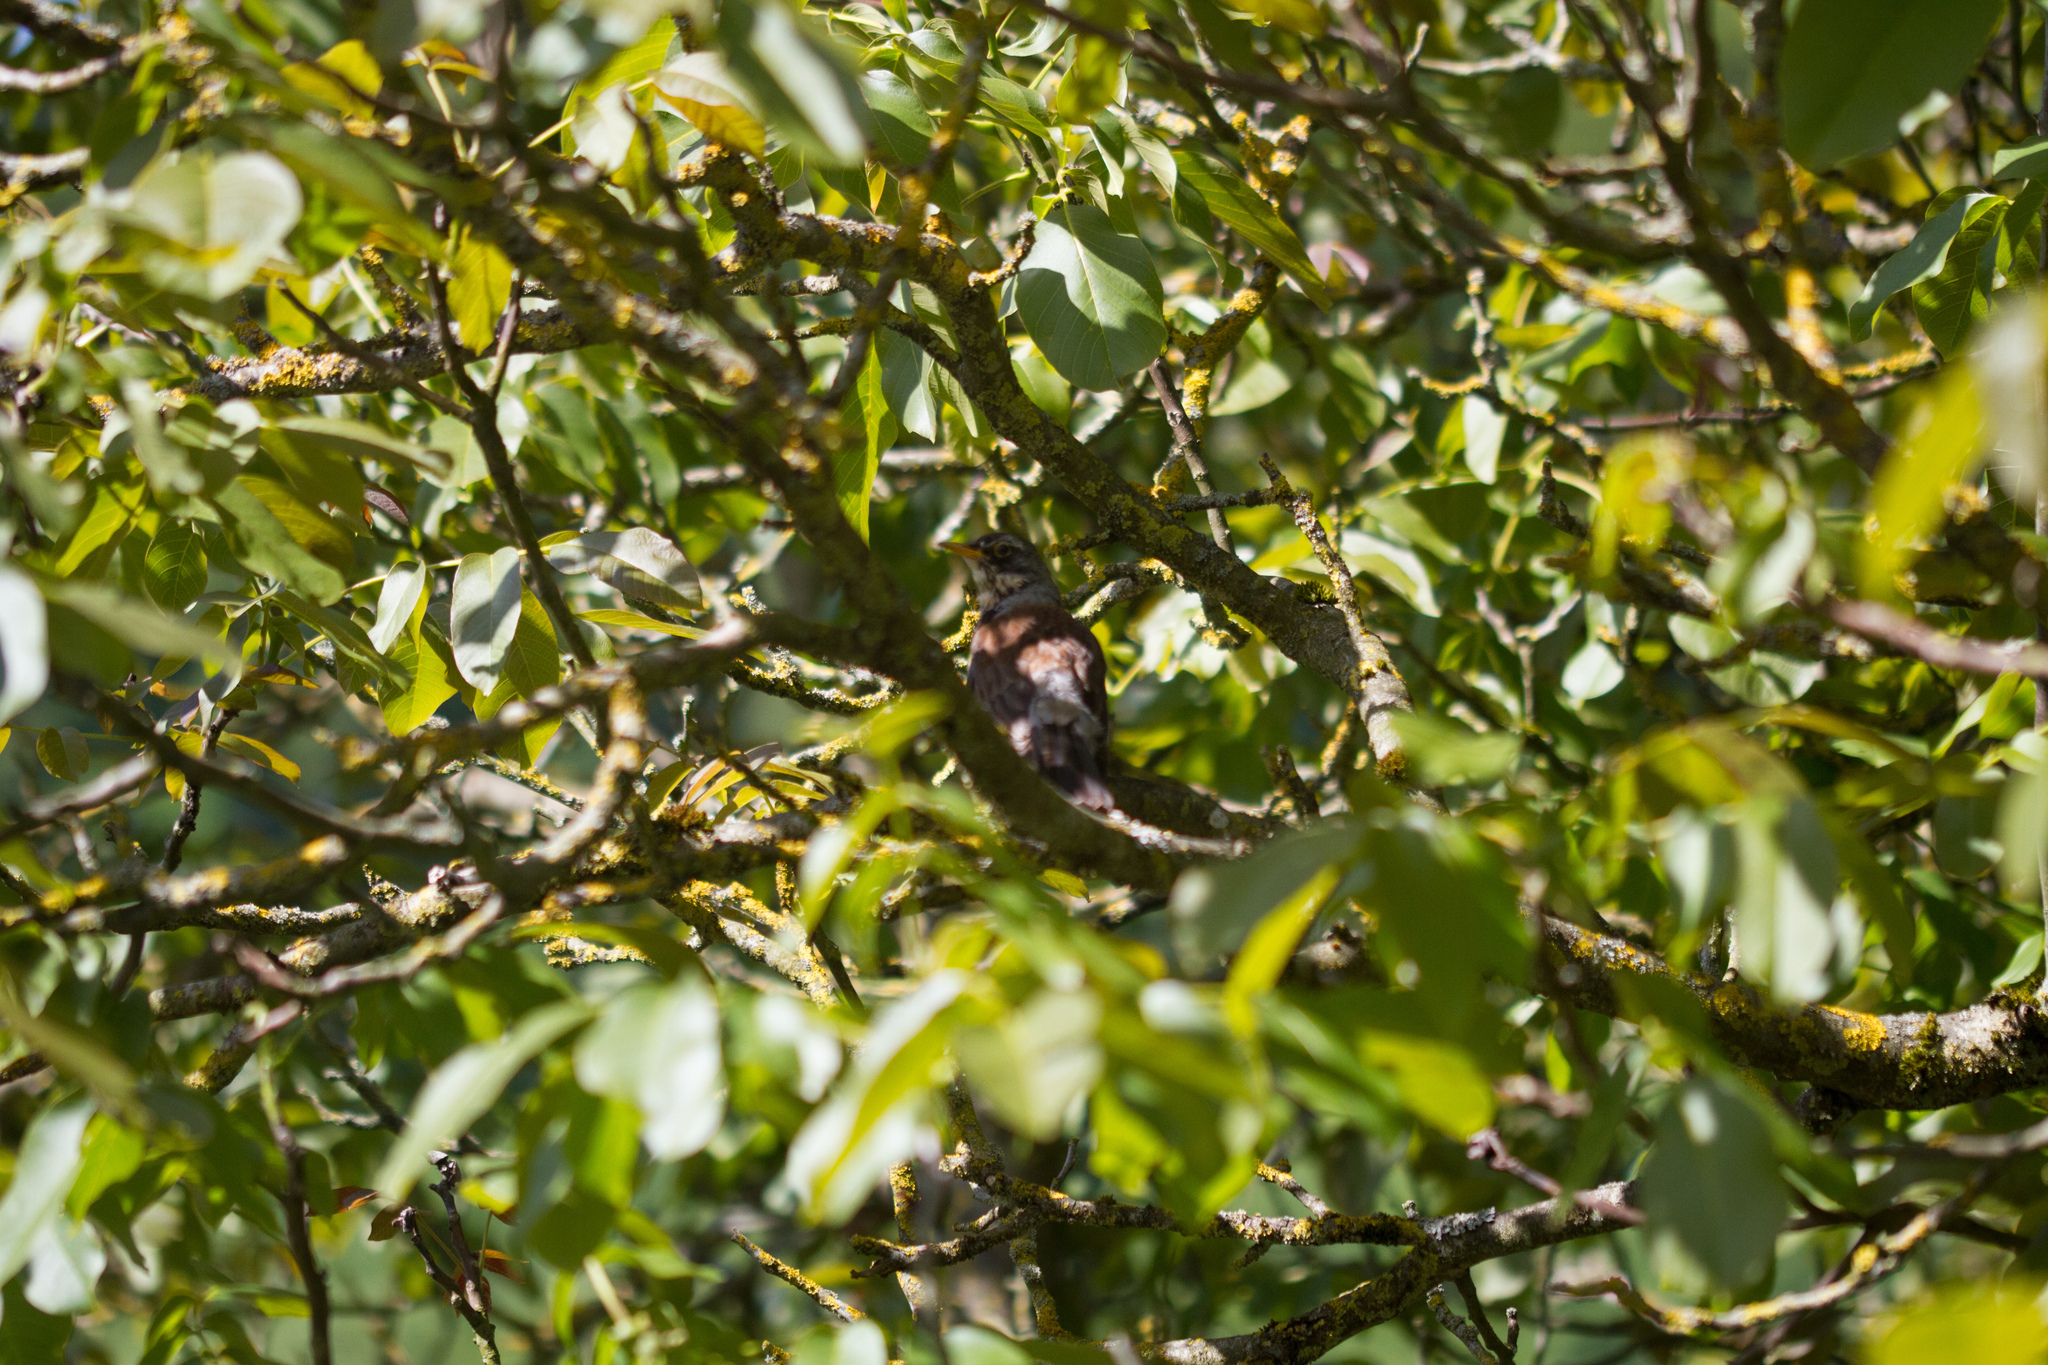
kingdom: Animalia
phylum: Chordata
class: Aves
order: Passeriformes
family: Turdidae
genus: Turdus
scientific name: Turdus pilaris
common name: Fieldfare
